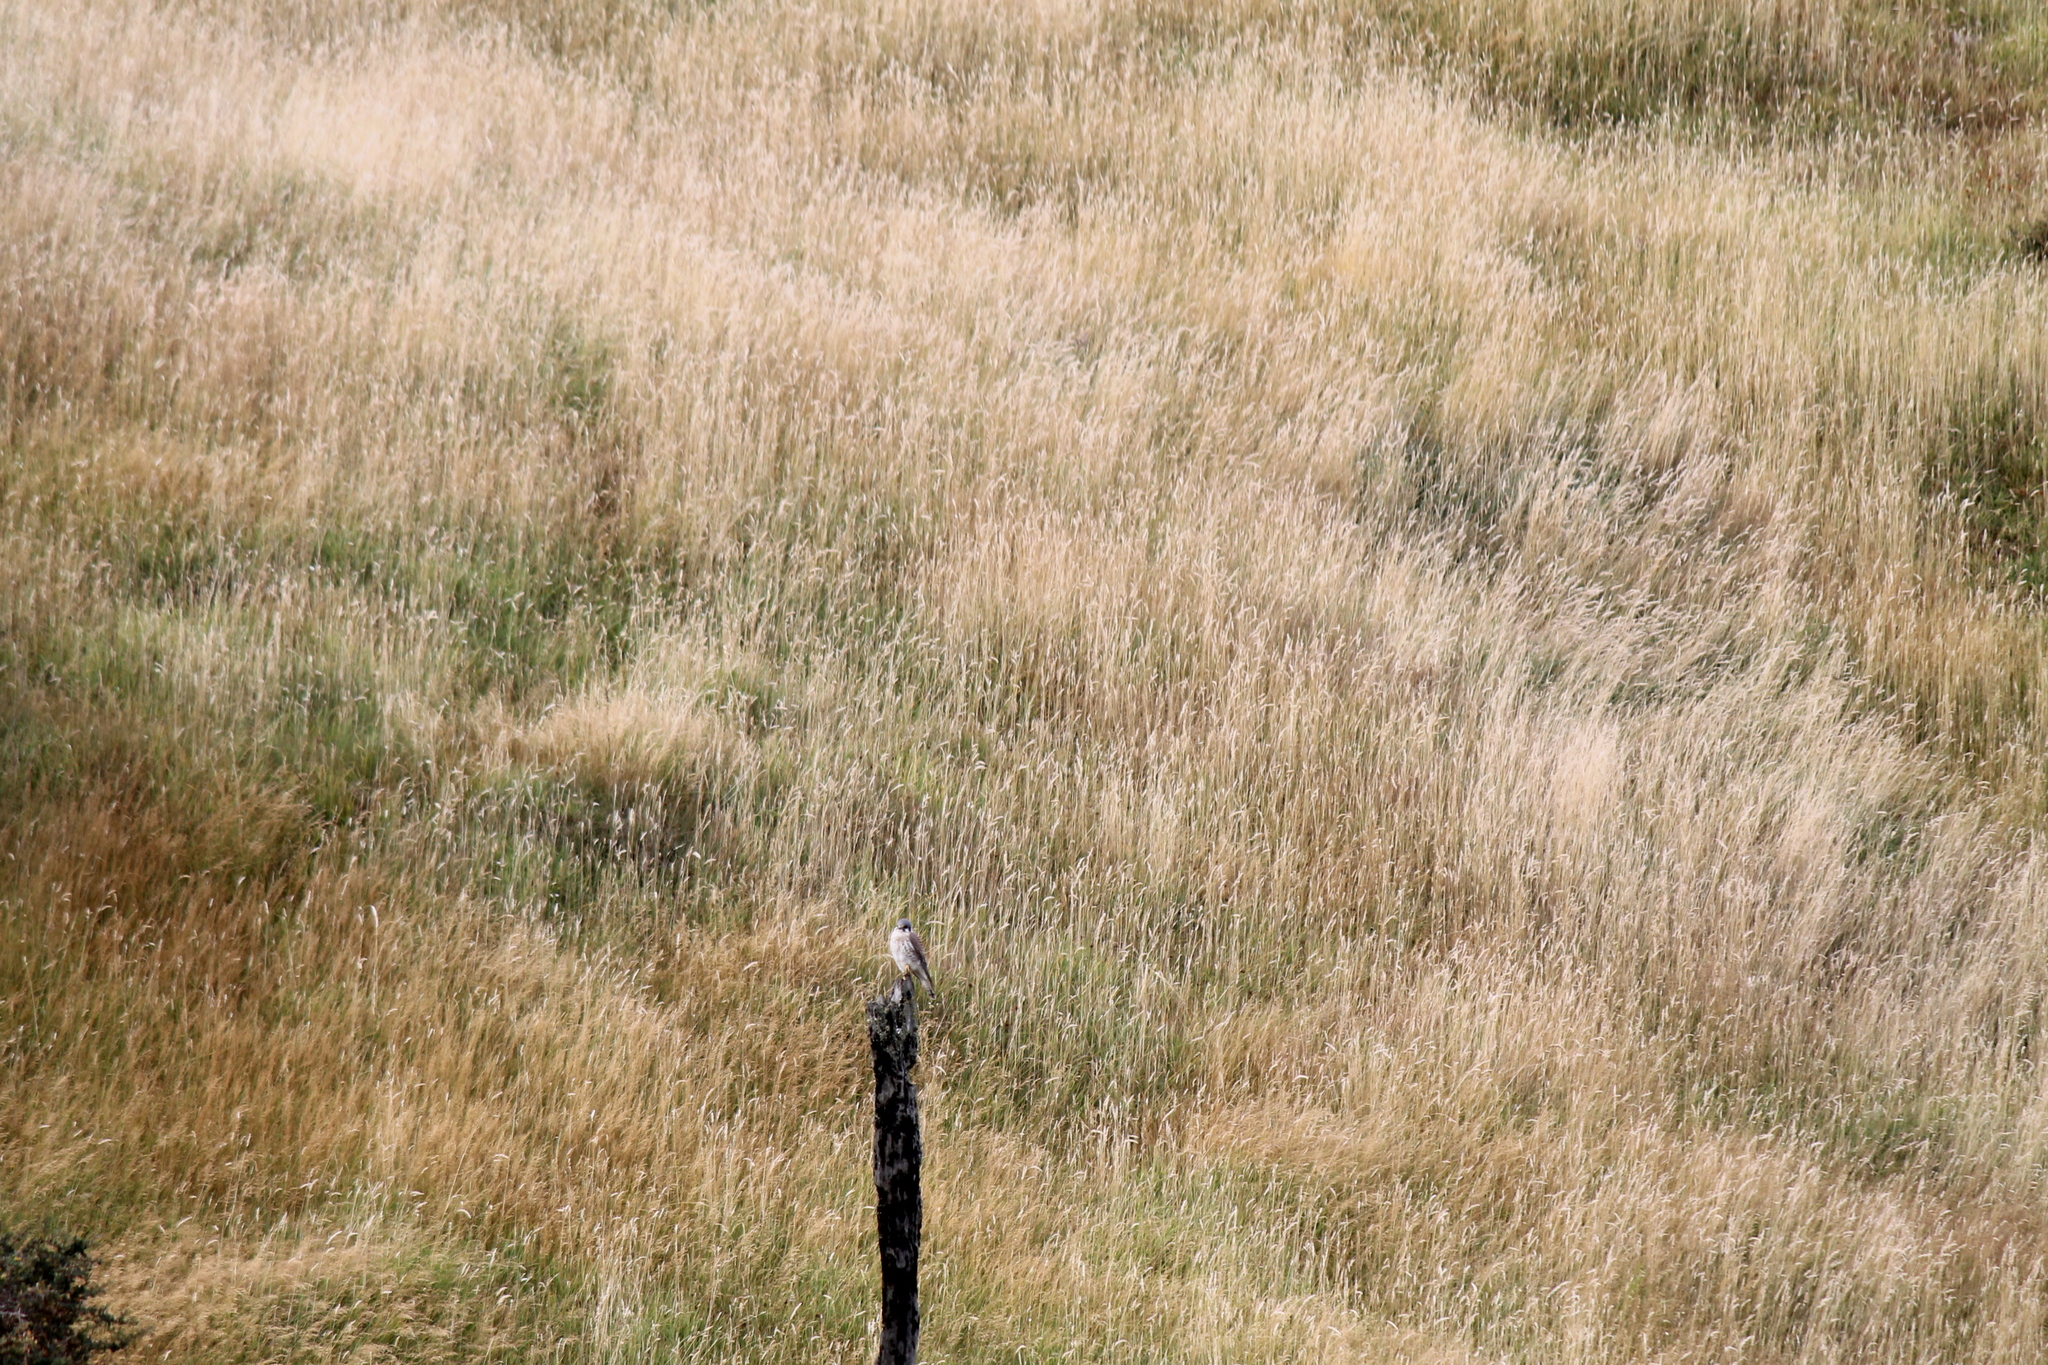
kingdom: Animalia
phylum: Chordata
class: Aves
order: Falconiformes
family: Falconidae
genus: Falco
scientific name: Falco sparverius
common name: American kestrel
